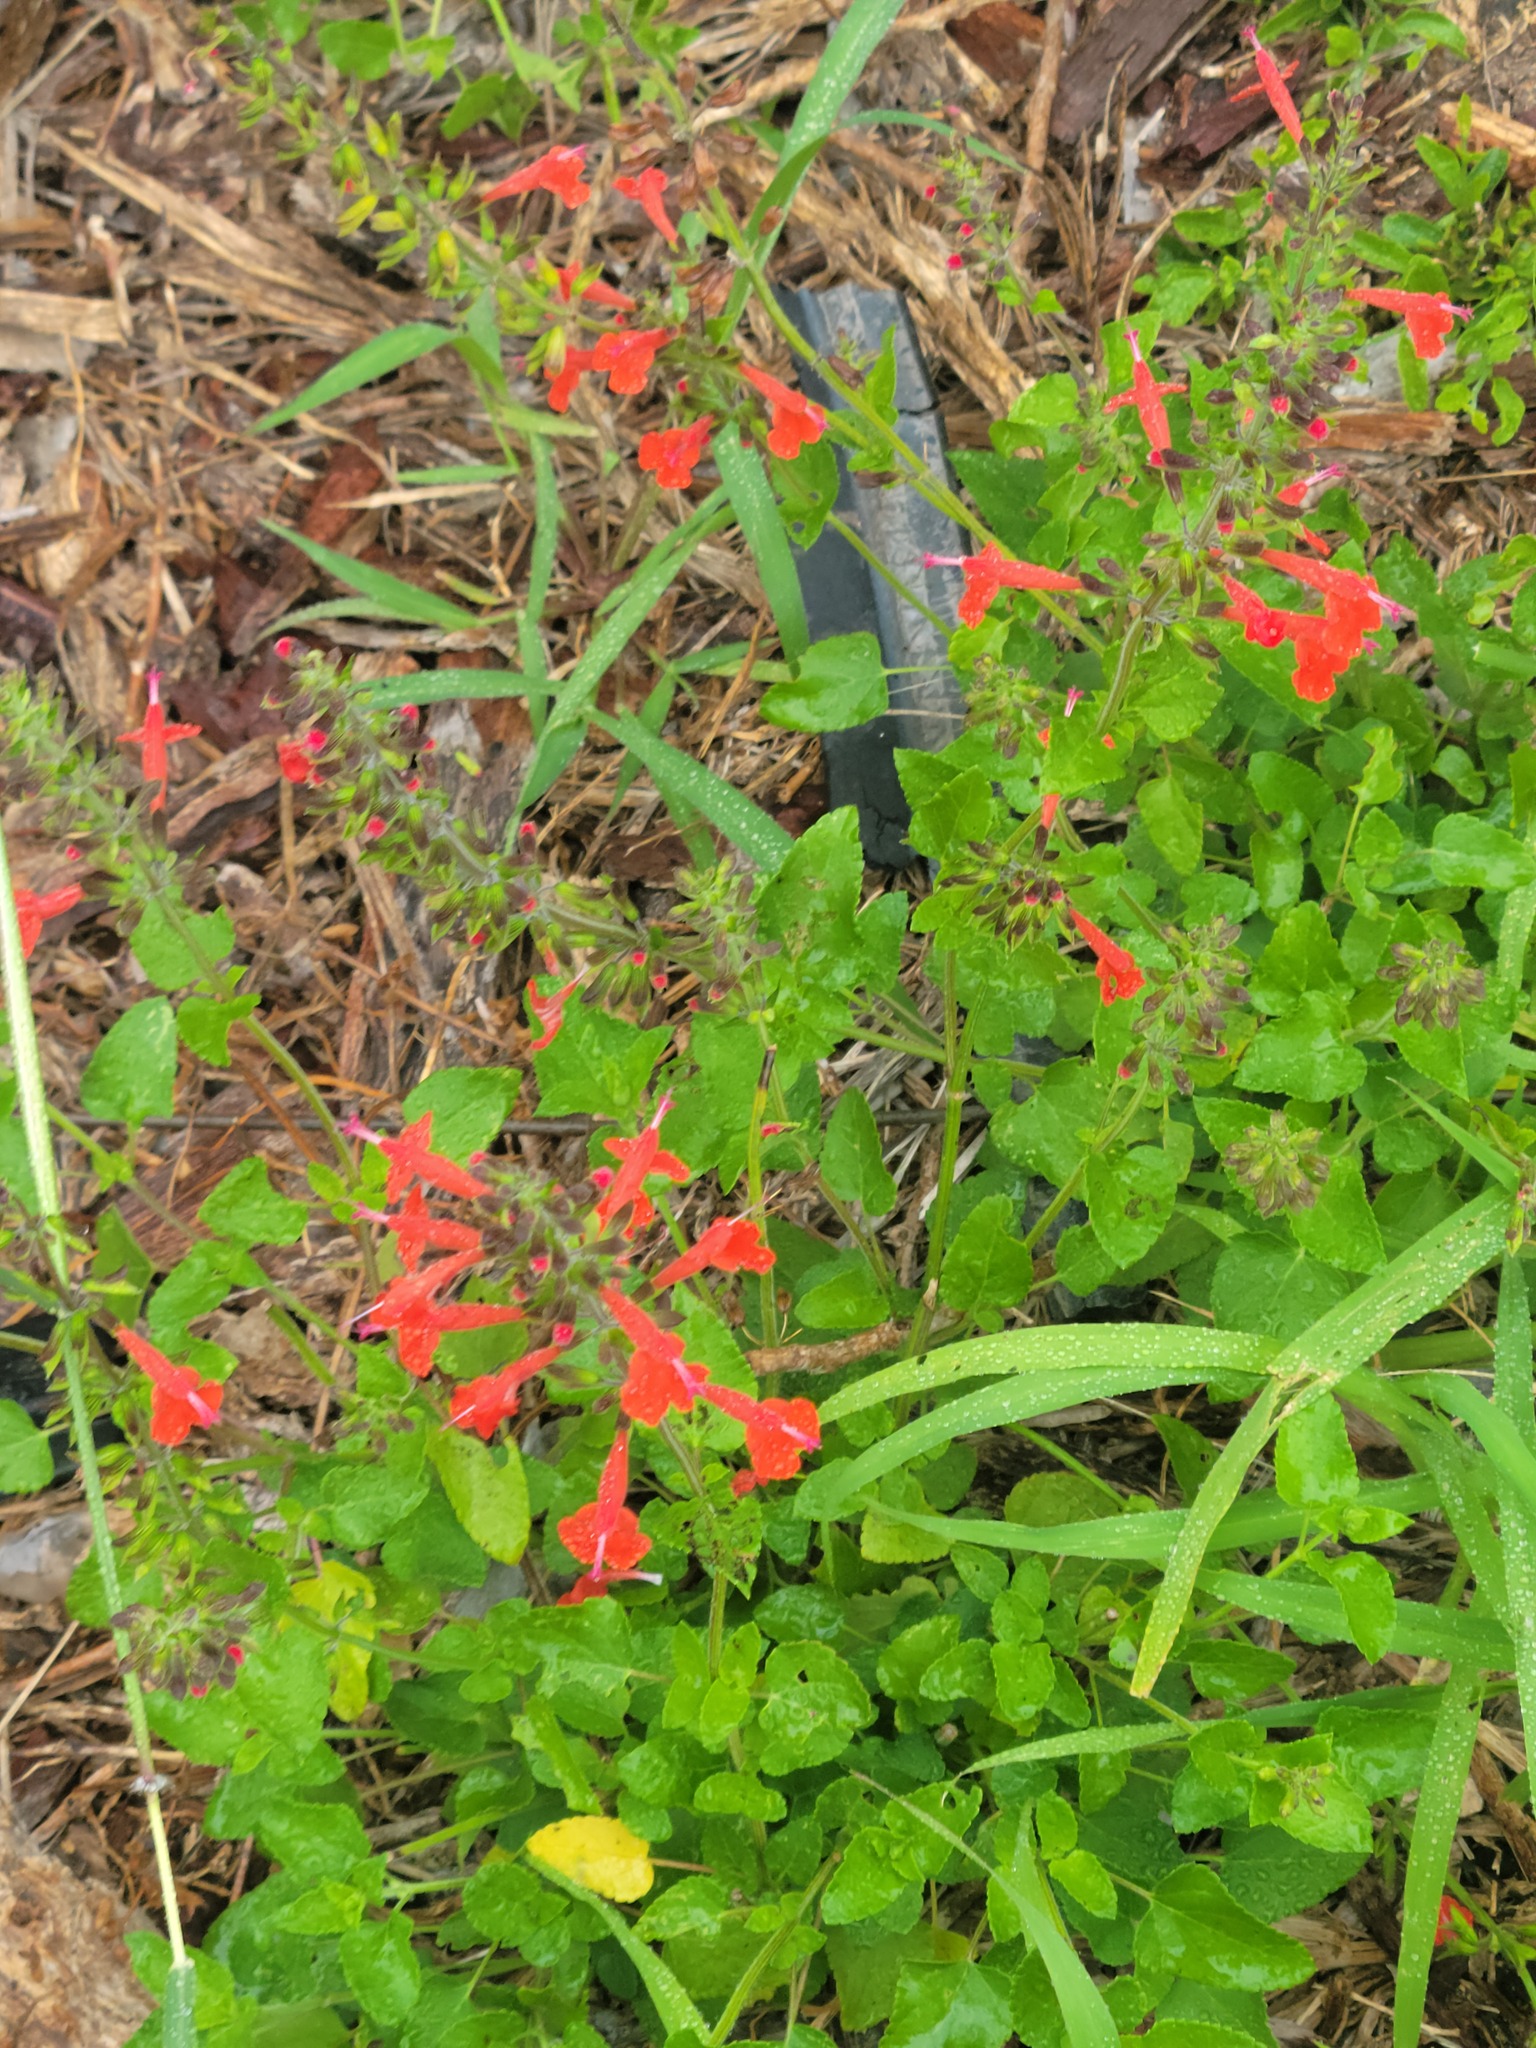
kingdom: Plantae
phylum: Tracheophyta
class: Magnoliopsida
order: Lamiales
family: Lamiaceae
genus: Salvia
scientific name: Salvia coccinea
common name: Blood sage
